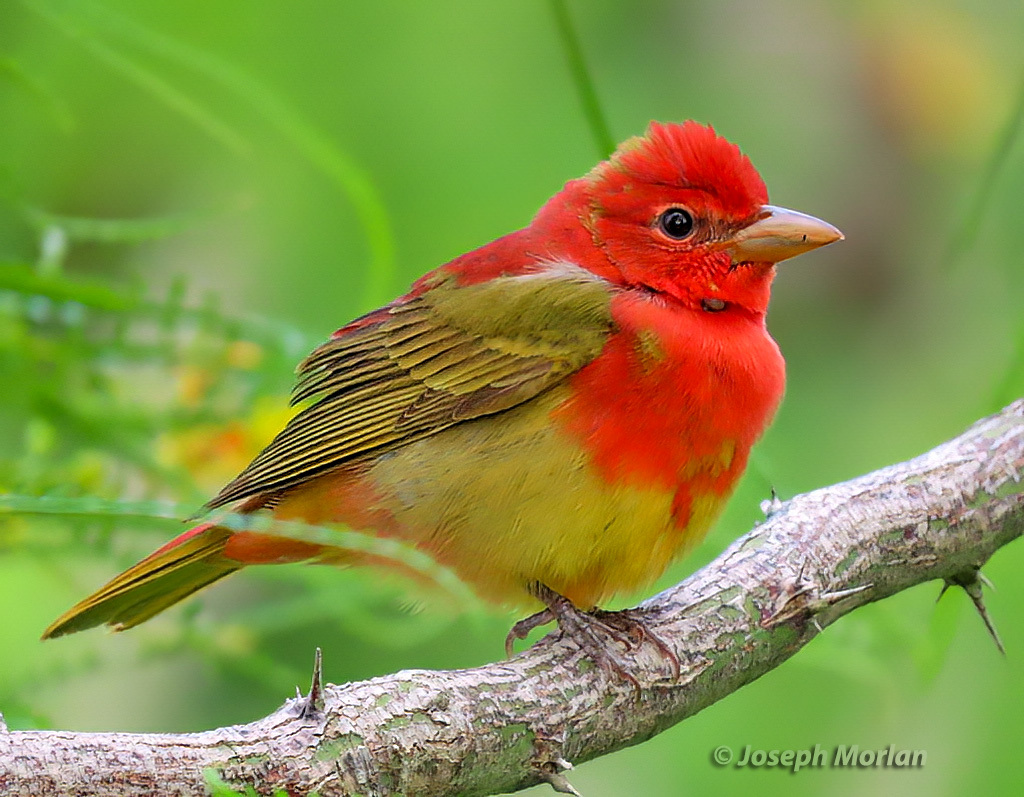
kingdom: Animalia
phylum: Chordata
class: Aves
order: Passeriformes
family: Cardinalidae
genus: Piranga
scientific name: Piranga rubra
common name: Summer tanager
